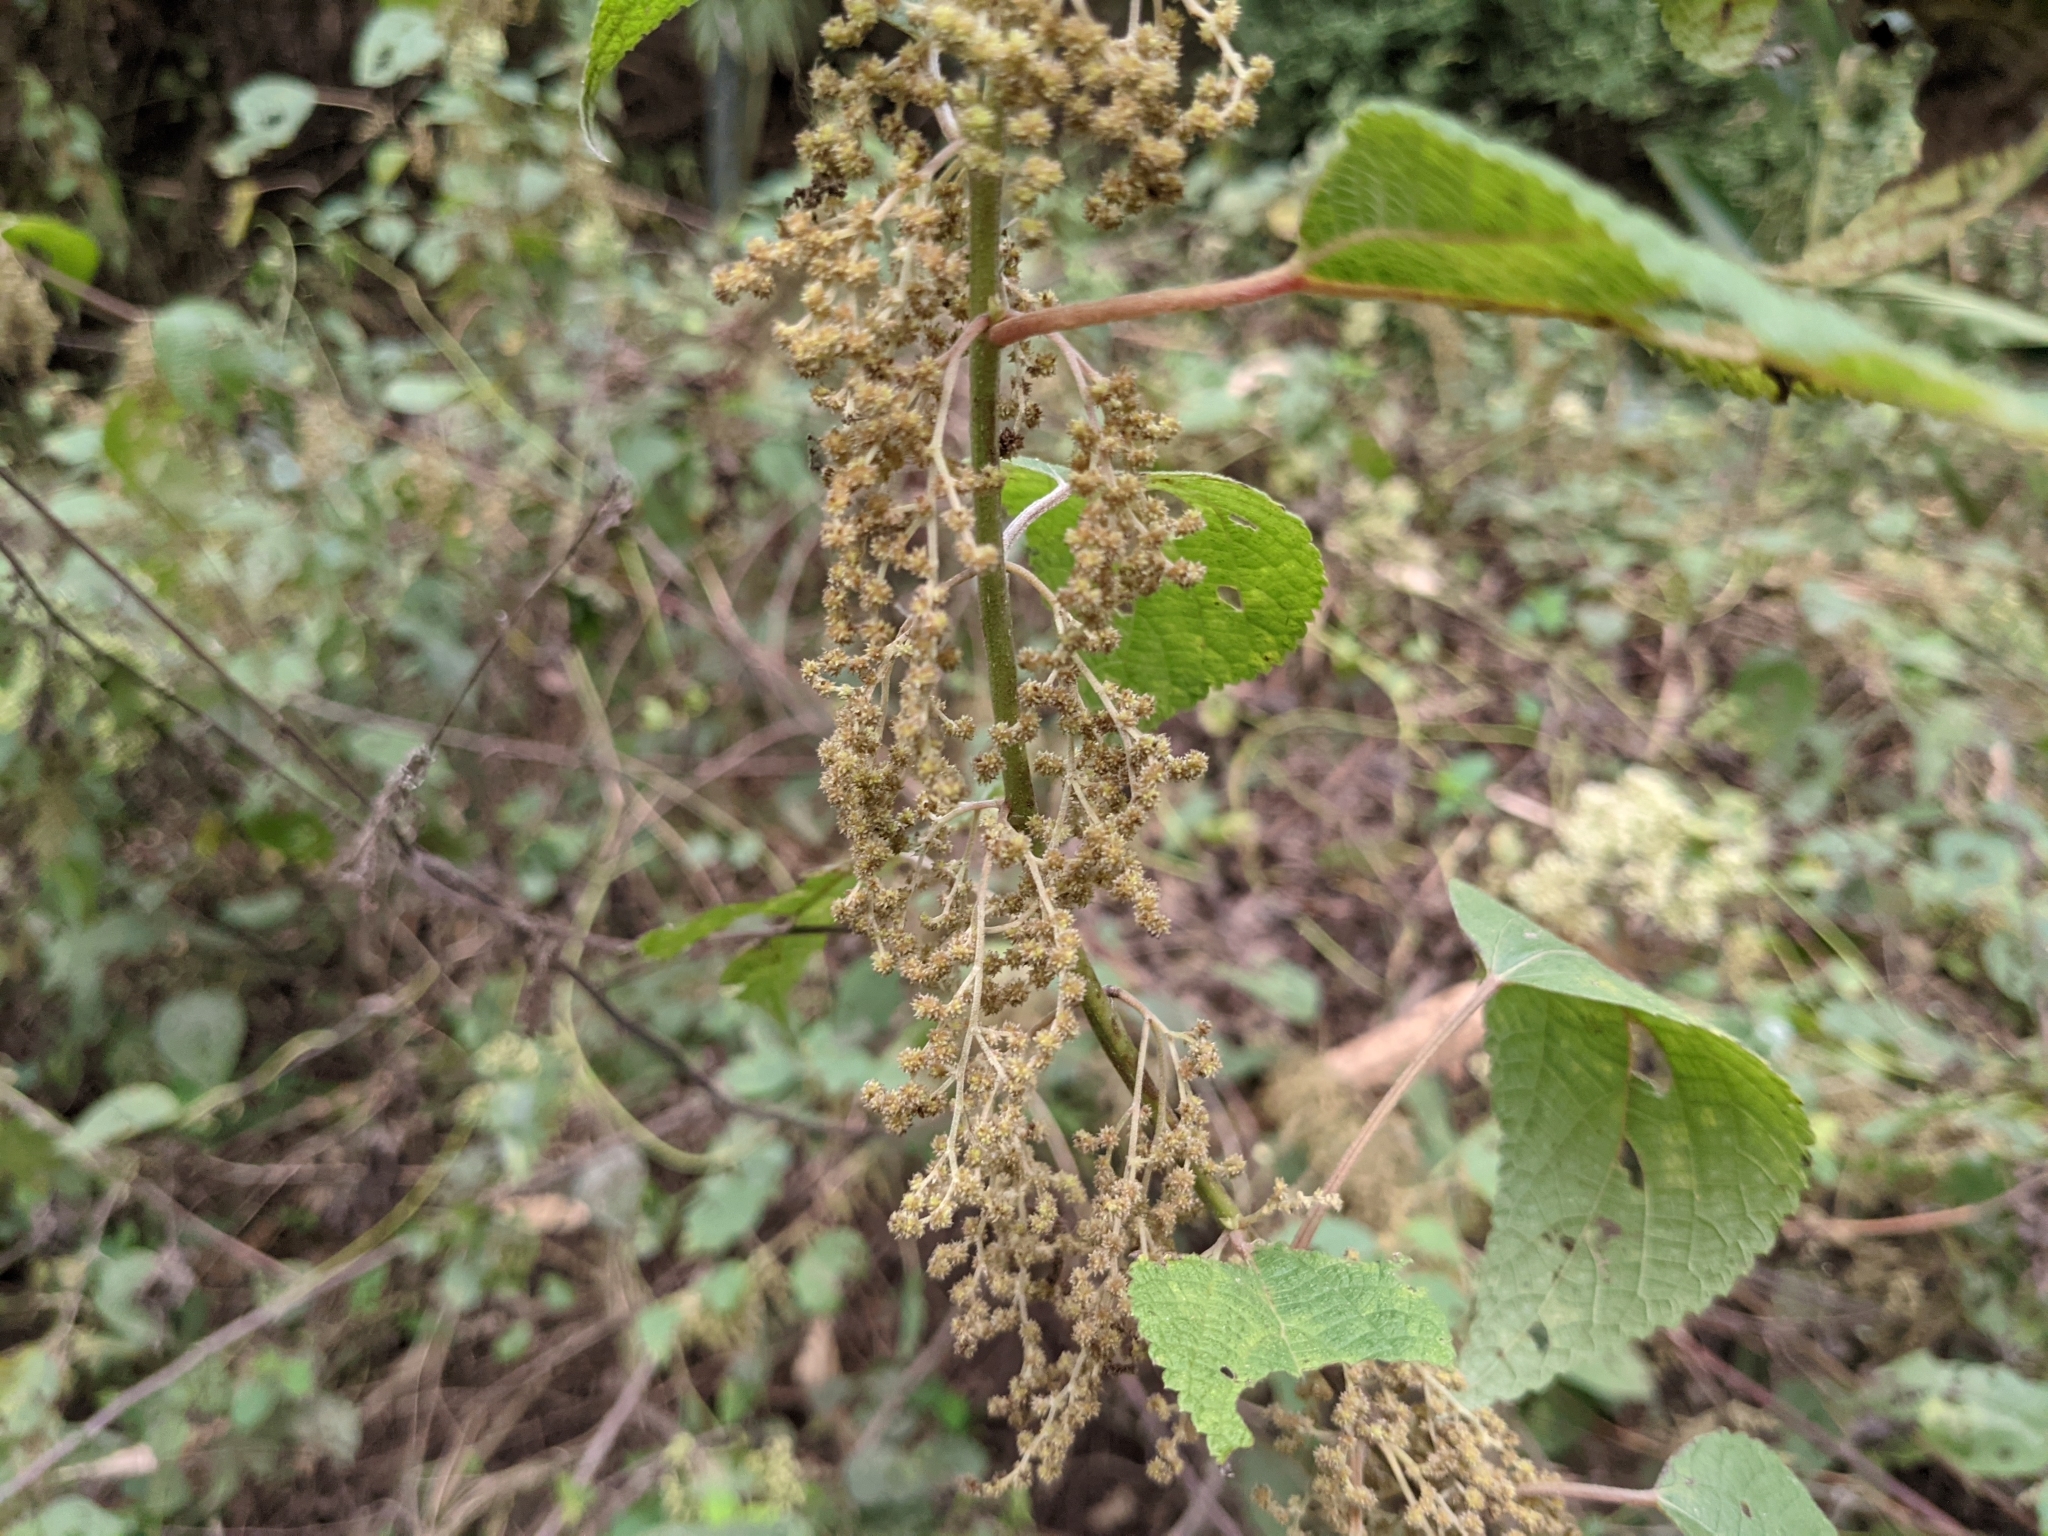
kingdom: Plantae
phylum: Tracheophyta
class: Magnoliopsida
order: Rosales
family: Urticaceae
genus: Boehmeria
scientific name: Boehmeria nivea
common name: Ramie chinese grass
